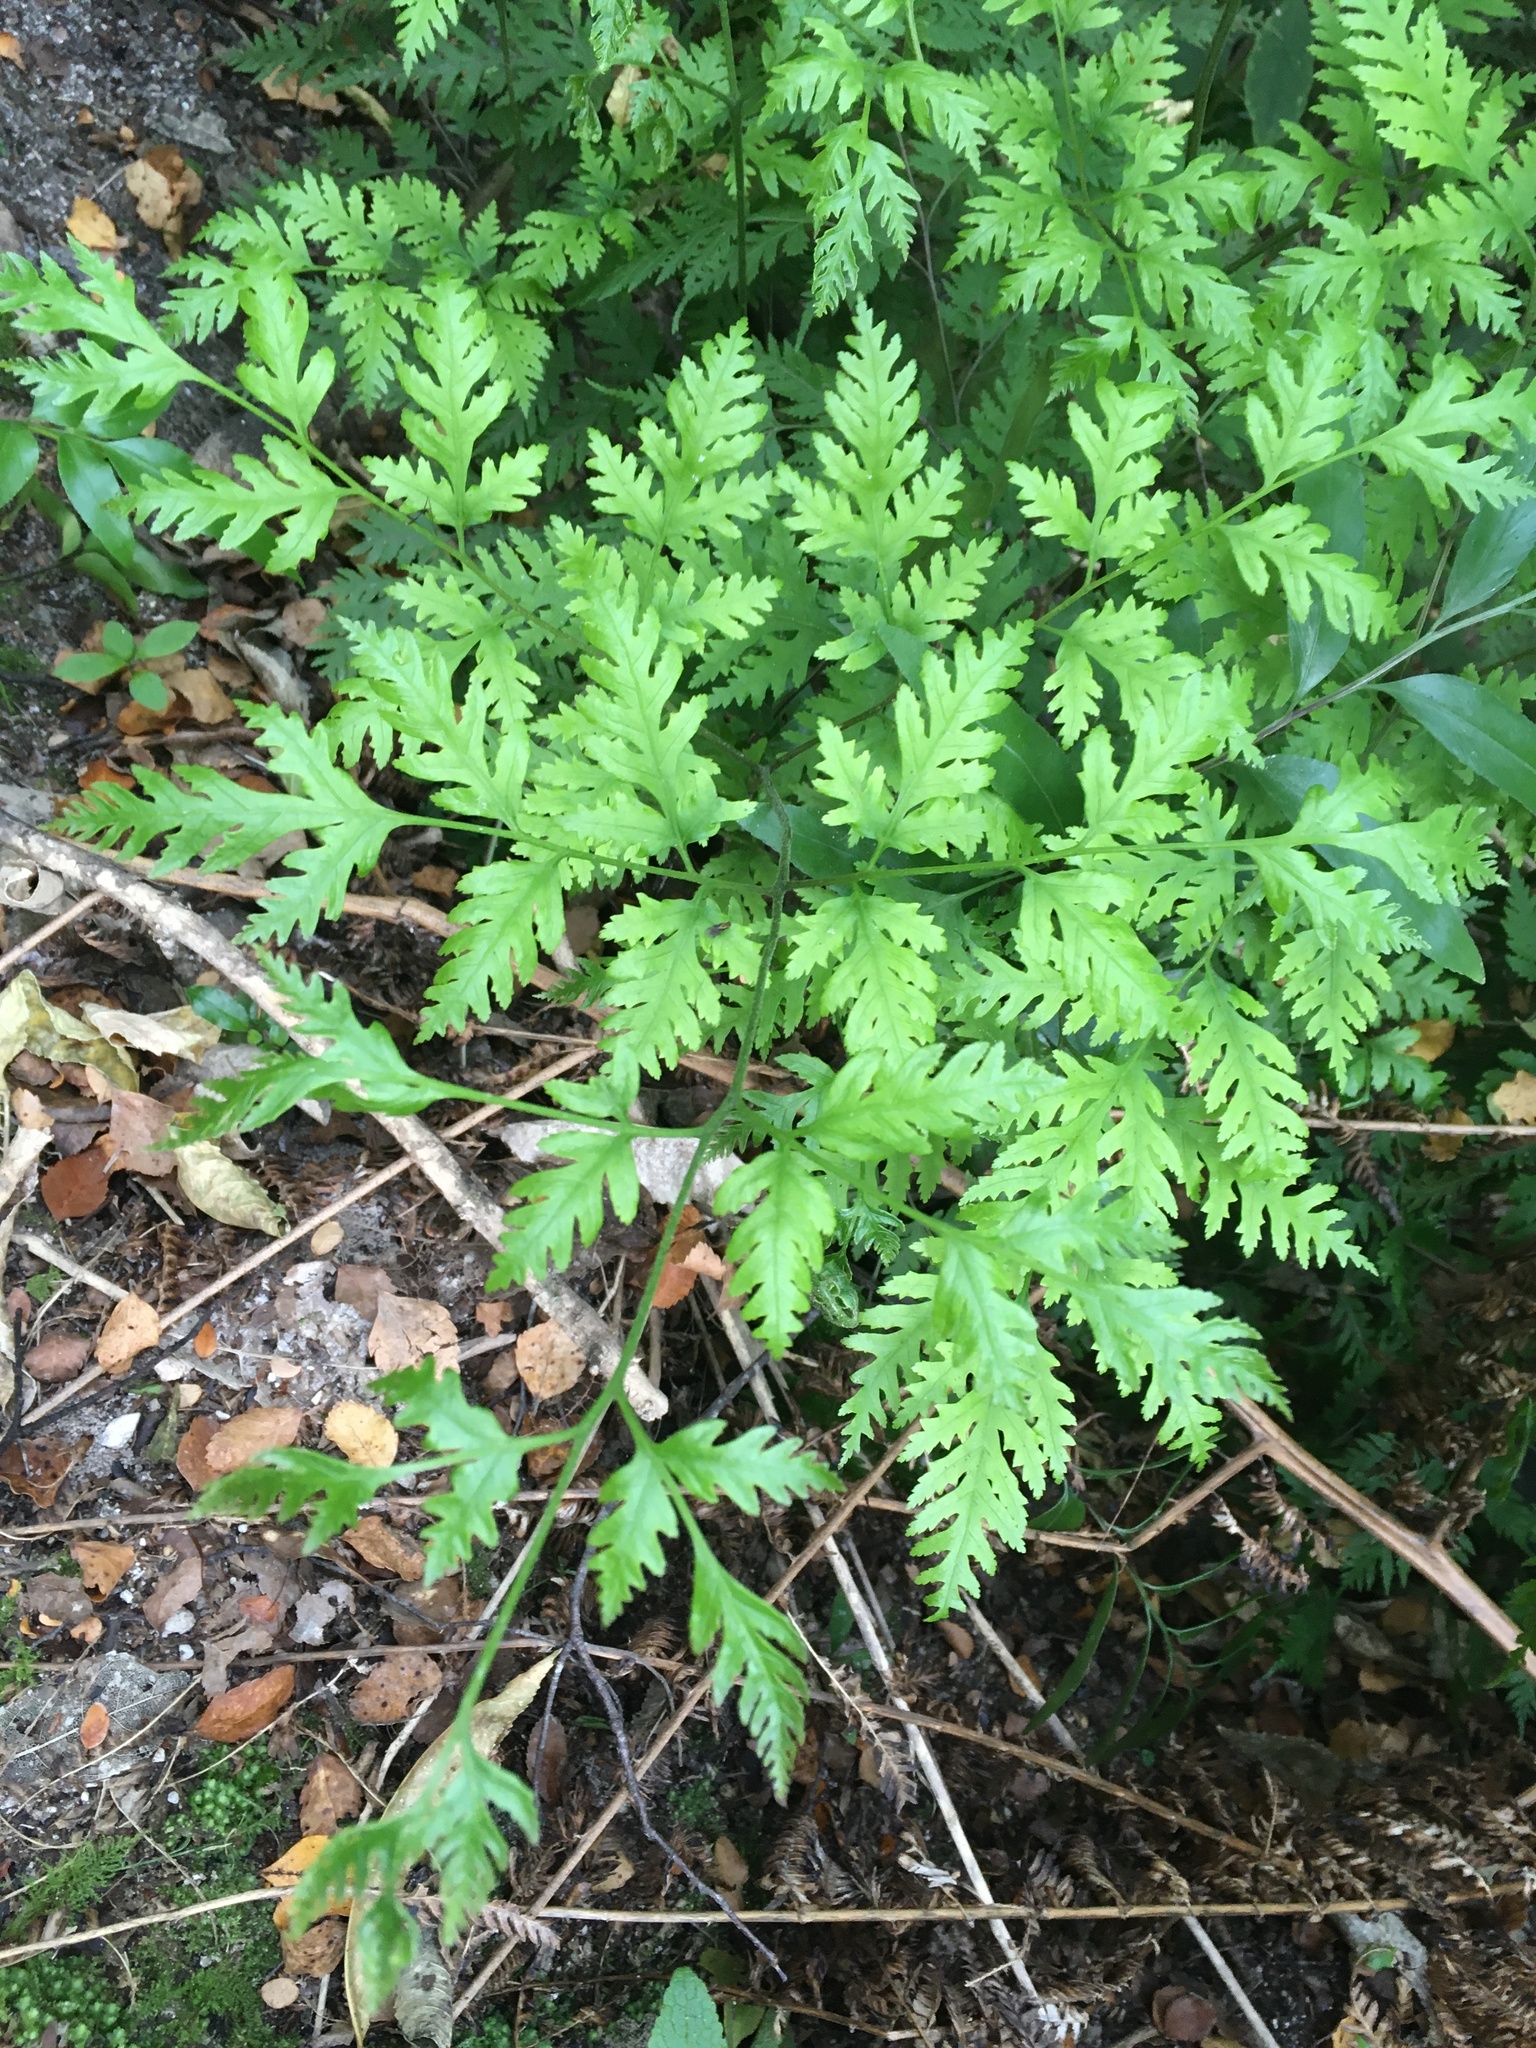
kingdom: Plantae
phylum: Tracheophyta
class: Polypodiopsida
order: Polypodiales
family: Pteridaceae
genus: Pteris
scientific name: Pteris macilenta
